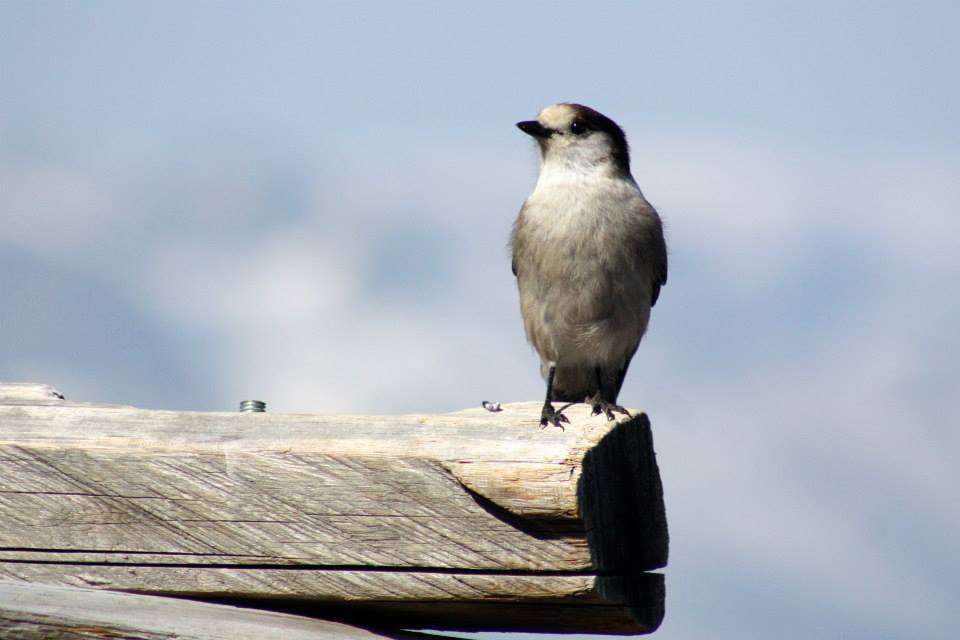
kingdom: Animalia
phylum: Chordata
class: Aves
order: Passeriformes
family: Corvidae
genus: Perisoreus
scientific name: Perisoreus canadensis
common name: Gray jay
